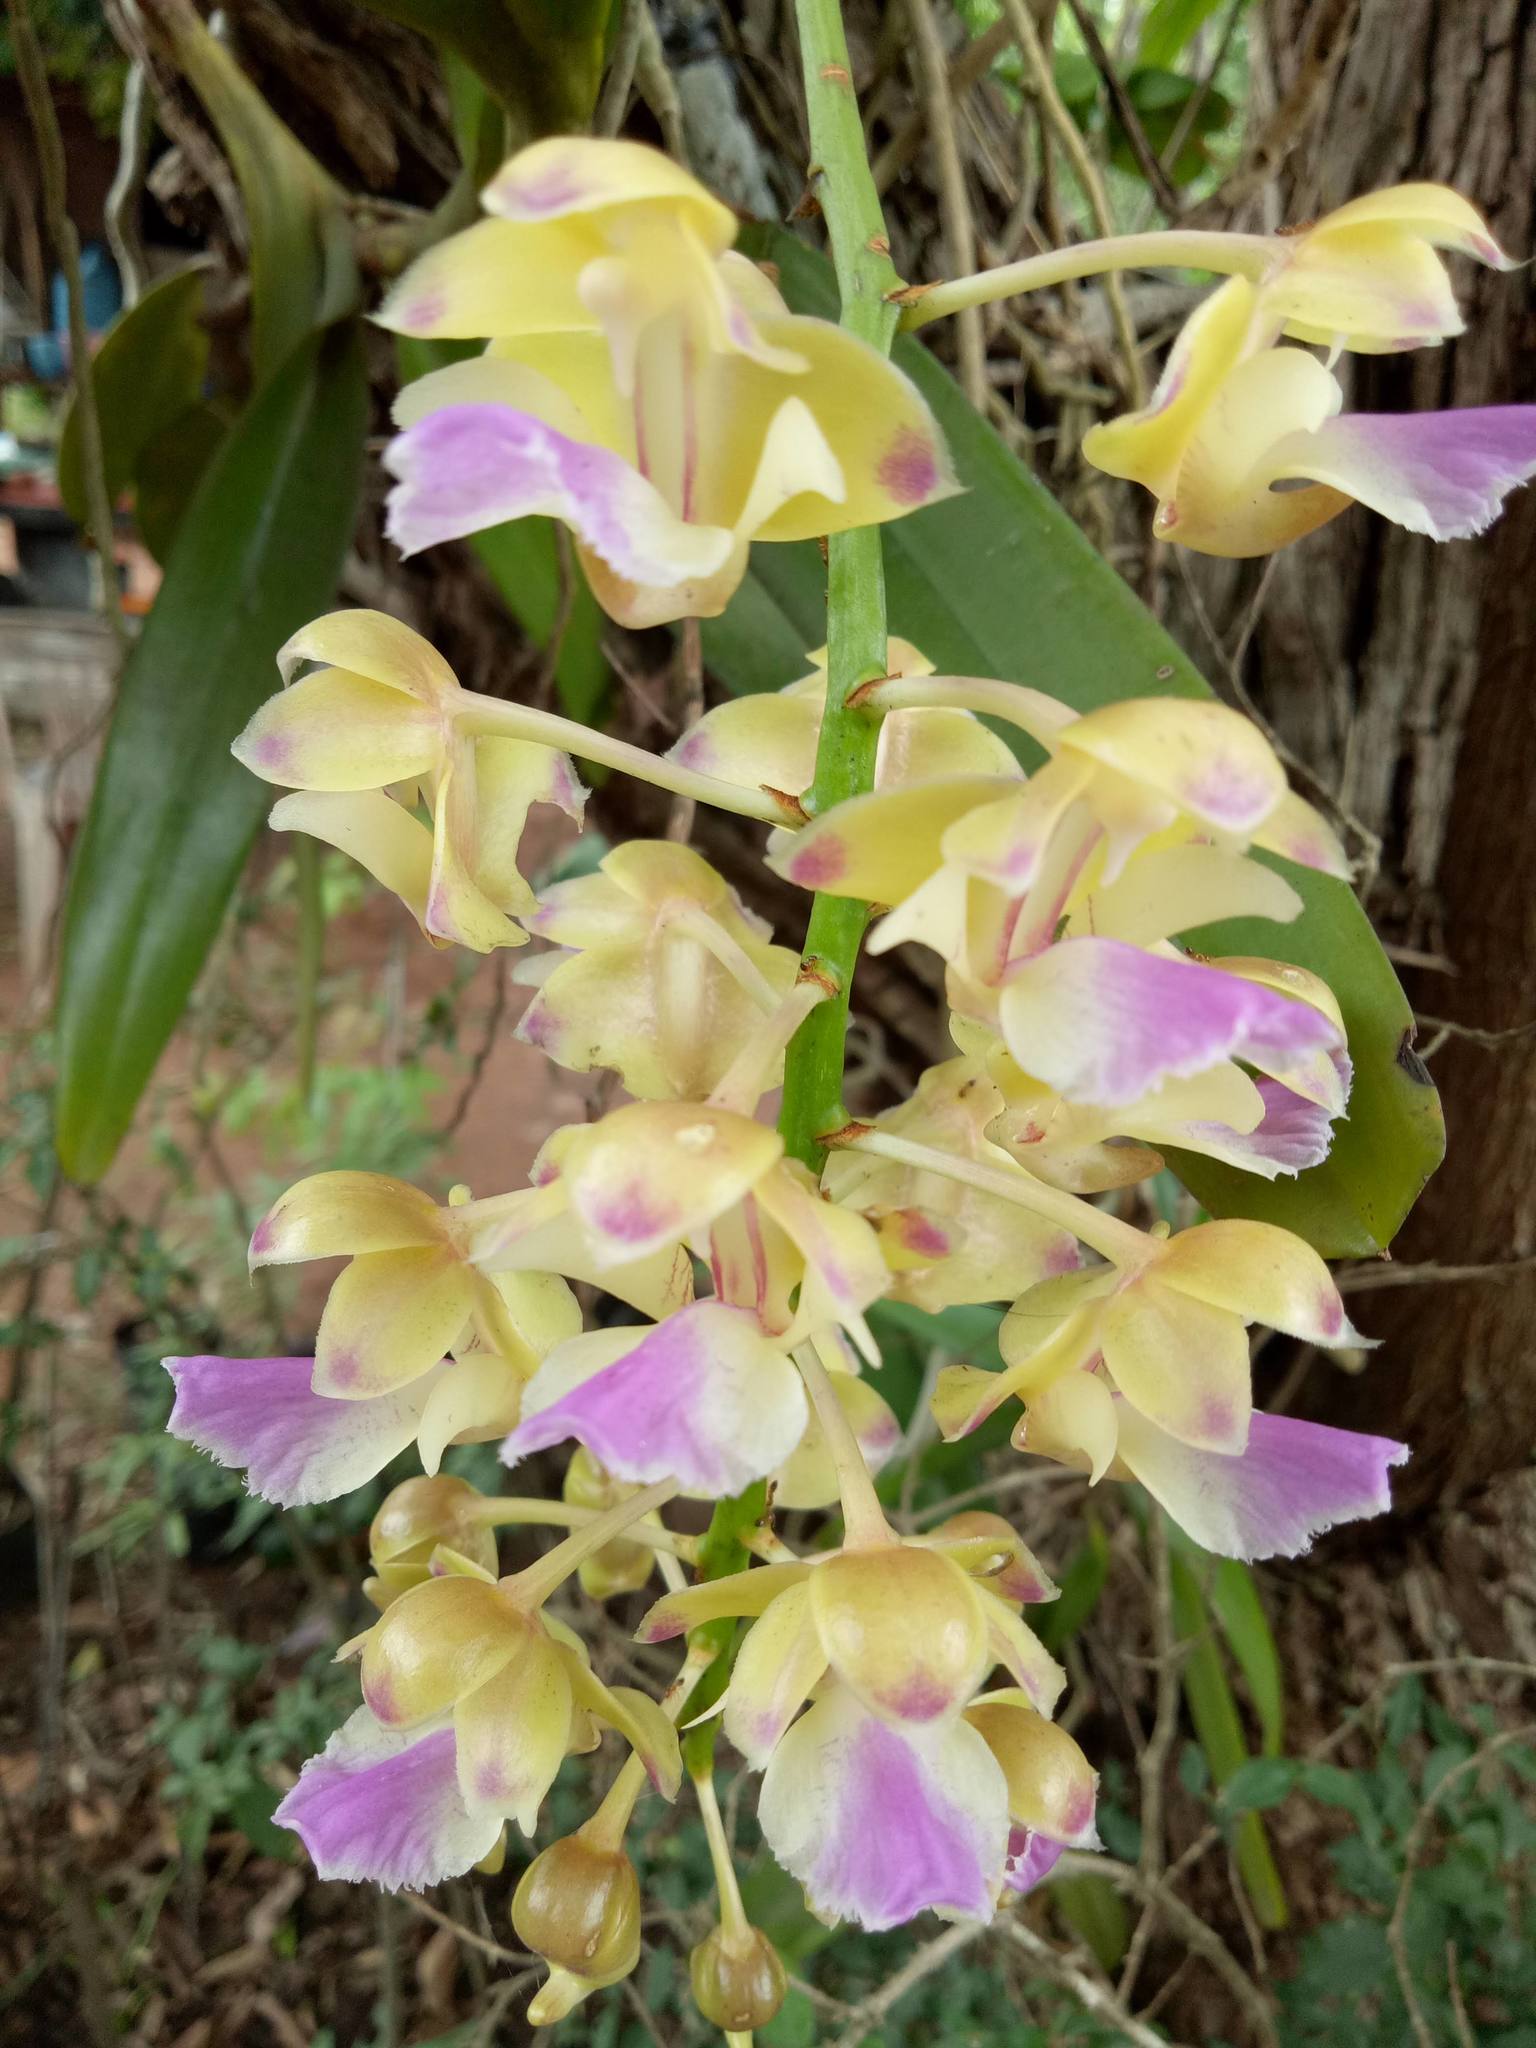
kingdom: Plantae
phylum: Tracheophyta
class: Liliopsida
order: Asparagales
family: Orchidaceae
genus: Aerides
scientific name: Aerides houlletiana
